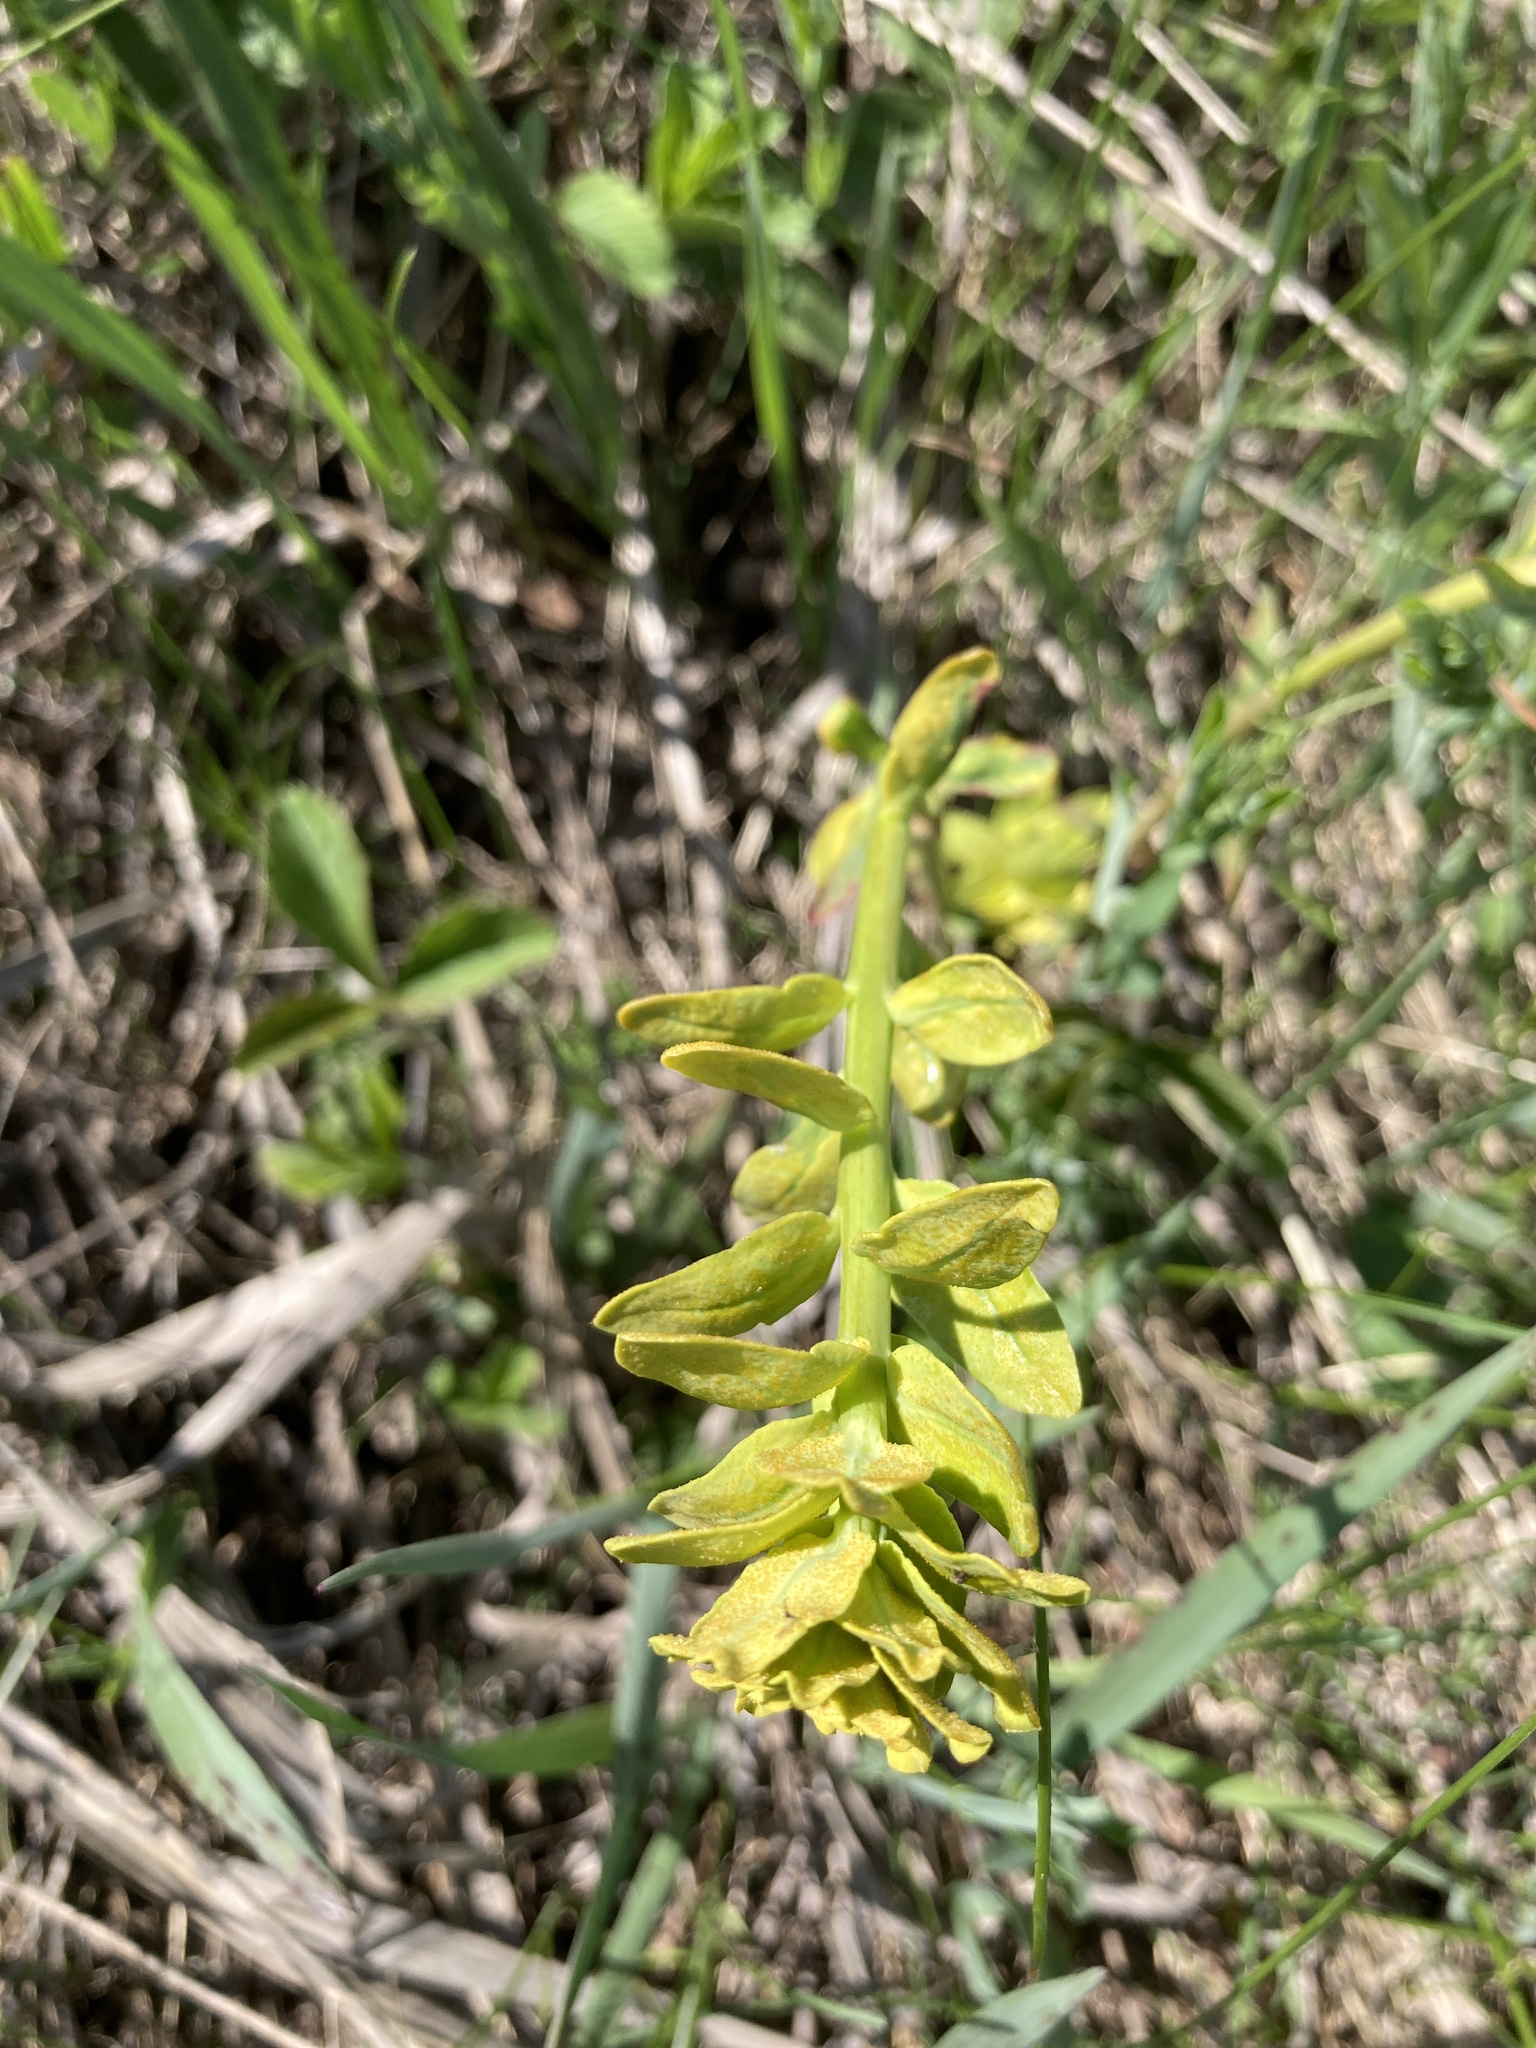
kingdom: Plantae
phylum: Tracheophyta
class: Magnoliopsida
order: Malpighiales
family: Euphorbiaceae
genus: Euphorbia
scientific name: Euphorbia virgata
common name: Leafy spurge
